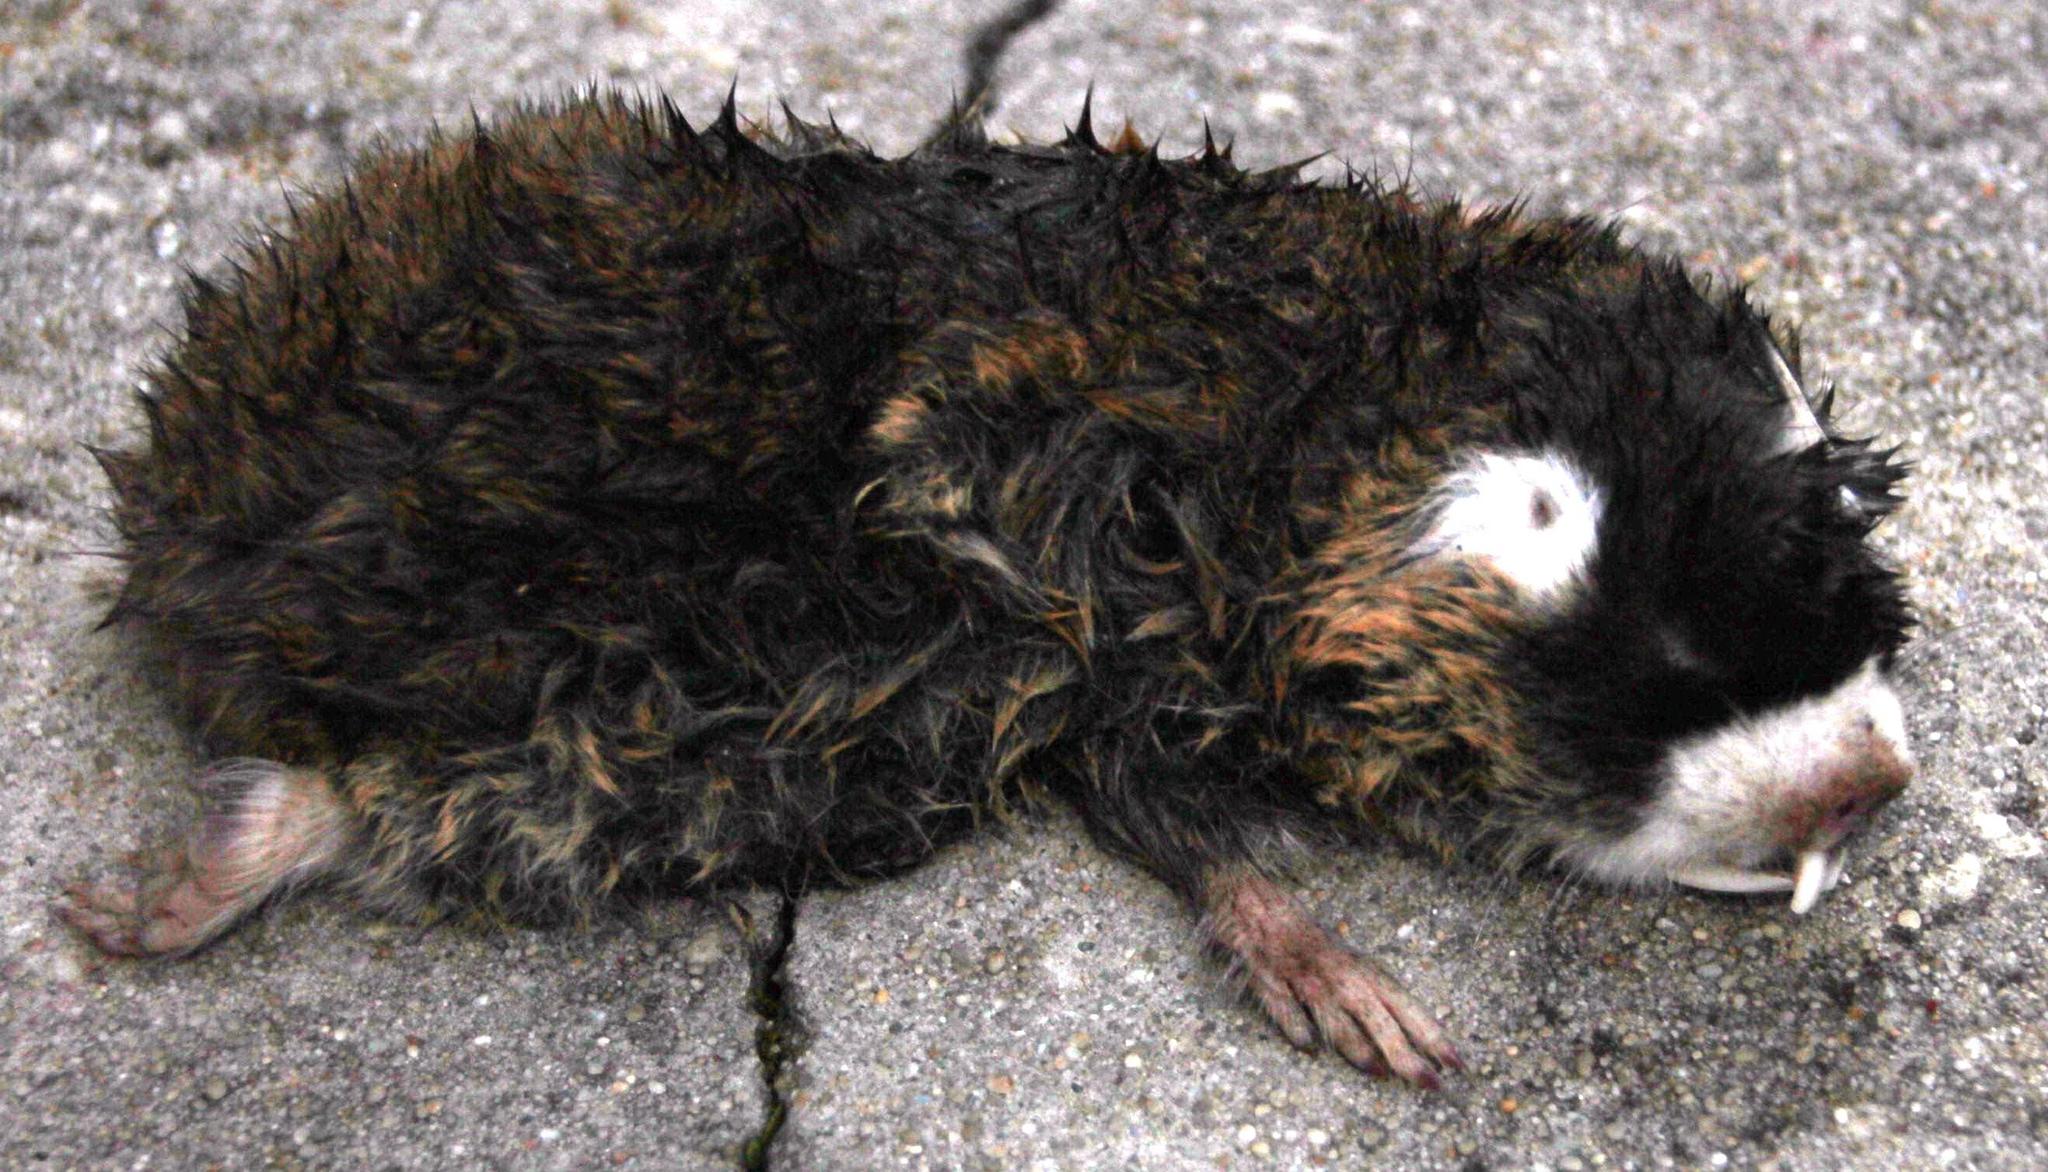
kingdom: Animalia
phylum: Chordata
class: Mammalia
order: Rodentia
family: Bathyergidae
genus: Georychus
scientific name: Georychus capensis
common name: Cape mole-rat
